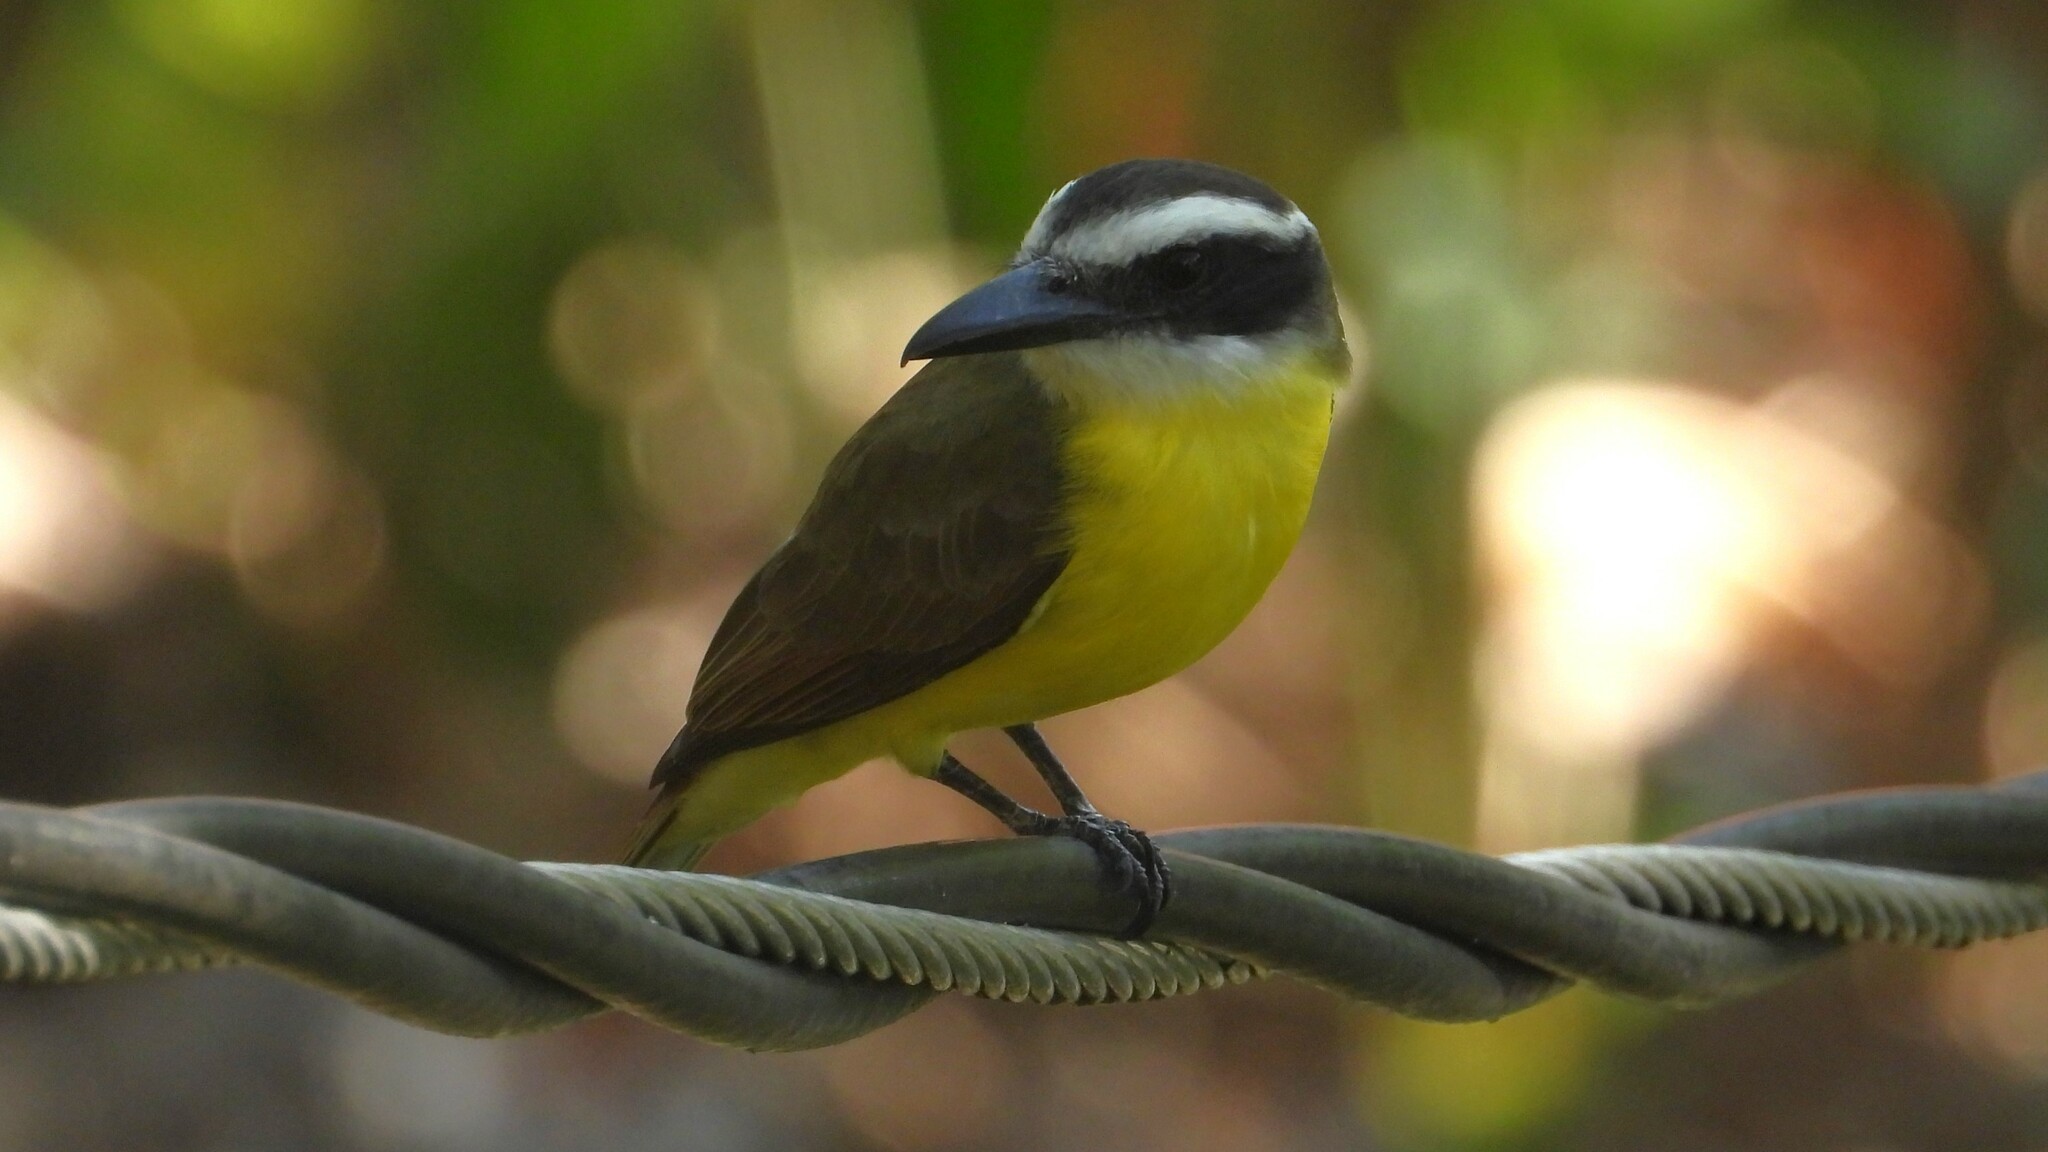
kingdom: Animalia
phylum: Chordata
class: Aves
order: Passeriformes
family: Tyrannidae
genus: Megarynchus
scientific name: Megarynchus pitangua
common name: Boat-billed flycatcher
